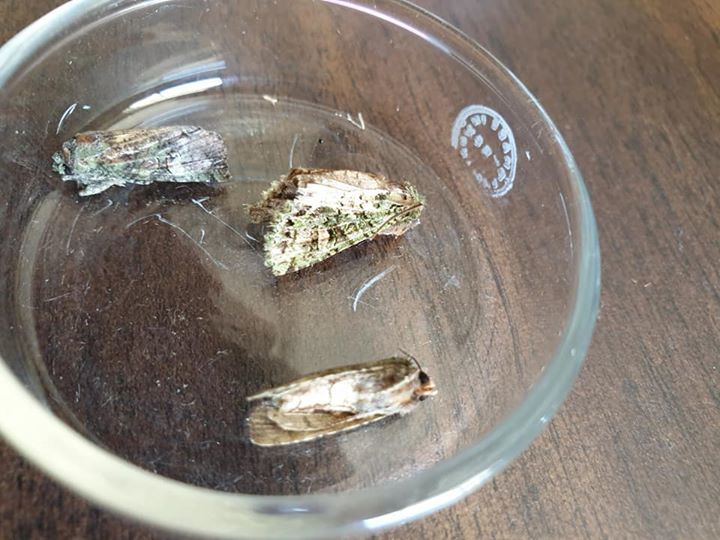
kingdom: Animalia
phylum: Arthropoda
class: Insecta
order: Lepidoptera
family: Noctuidae
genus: Ichneutica
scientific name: Ichneutica
